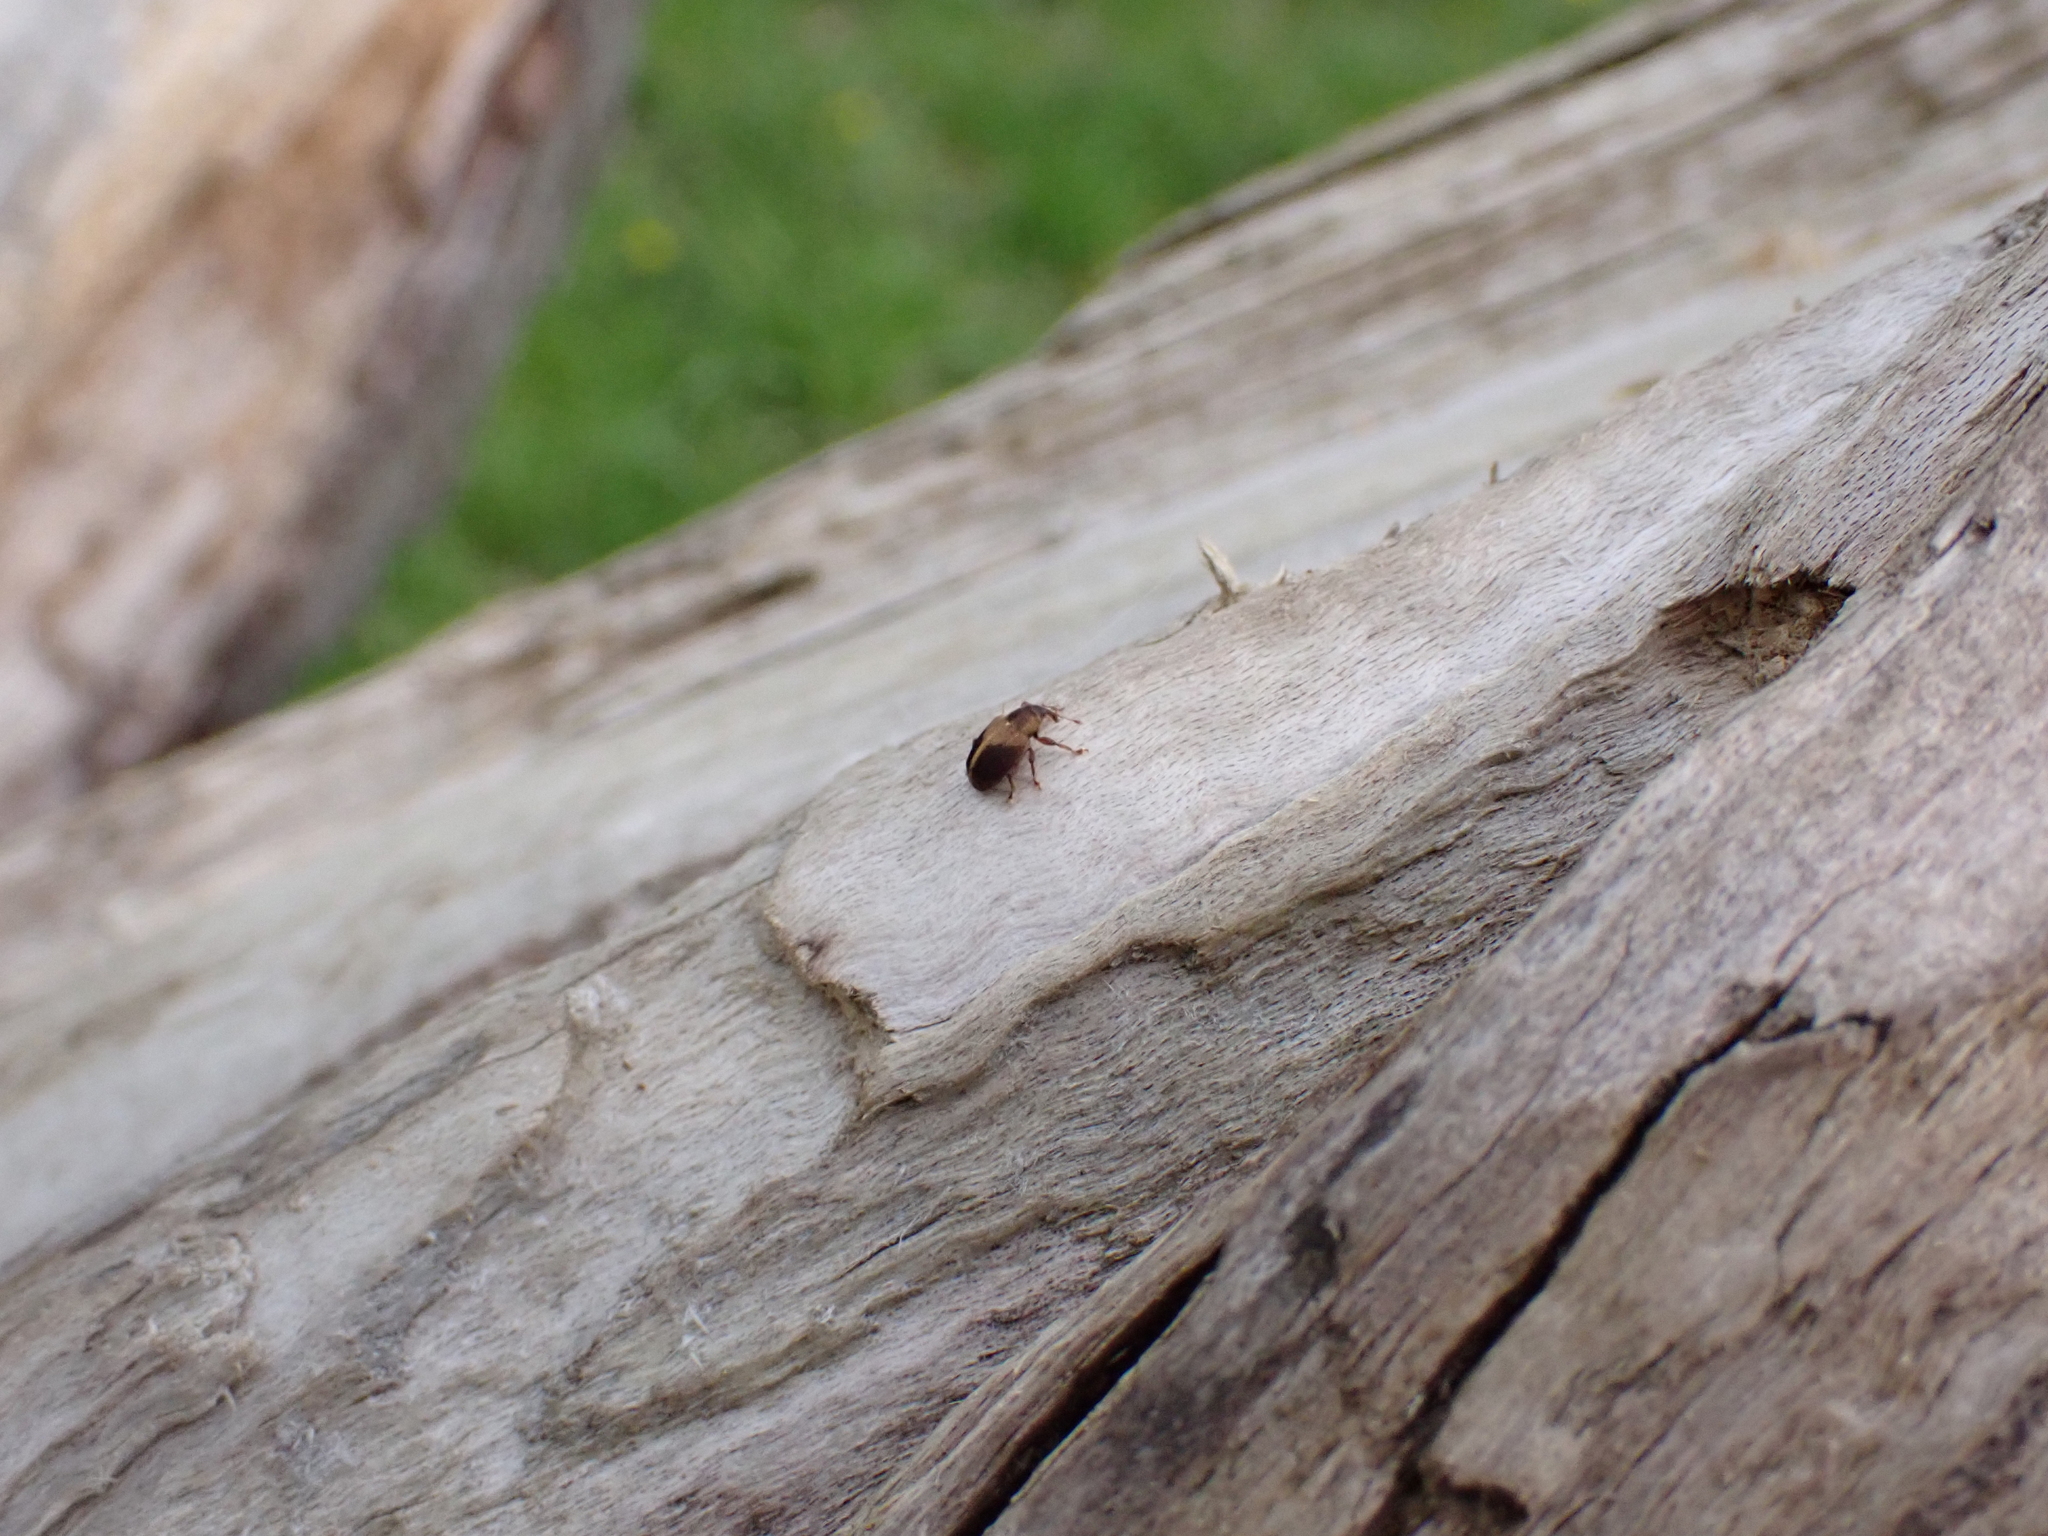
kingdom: Animalia
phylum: Arthropoda
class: Insecta
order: Coleoptera
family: Curculionidae
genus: Lignyodes
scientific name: Lignyodes enucleator
